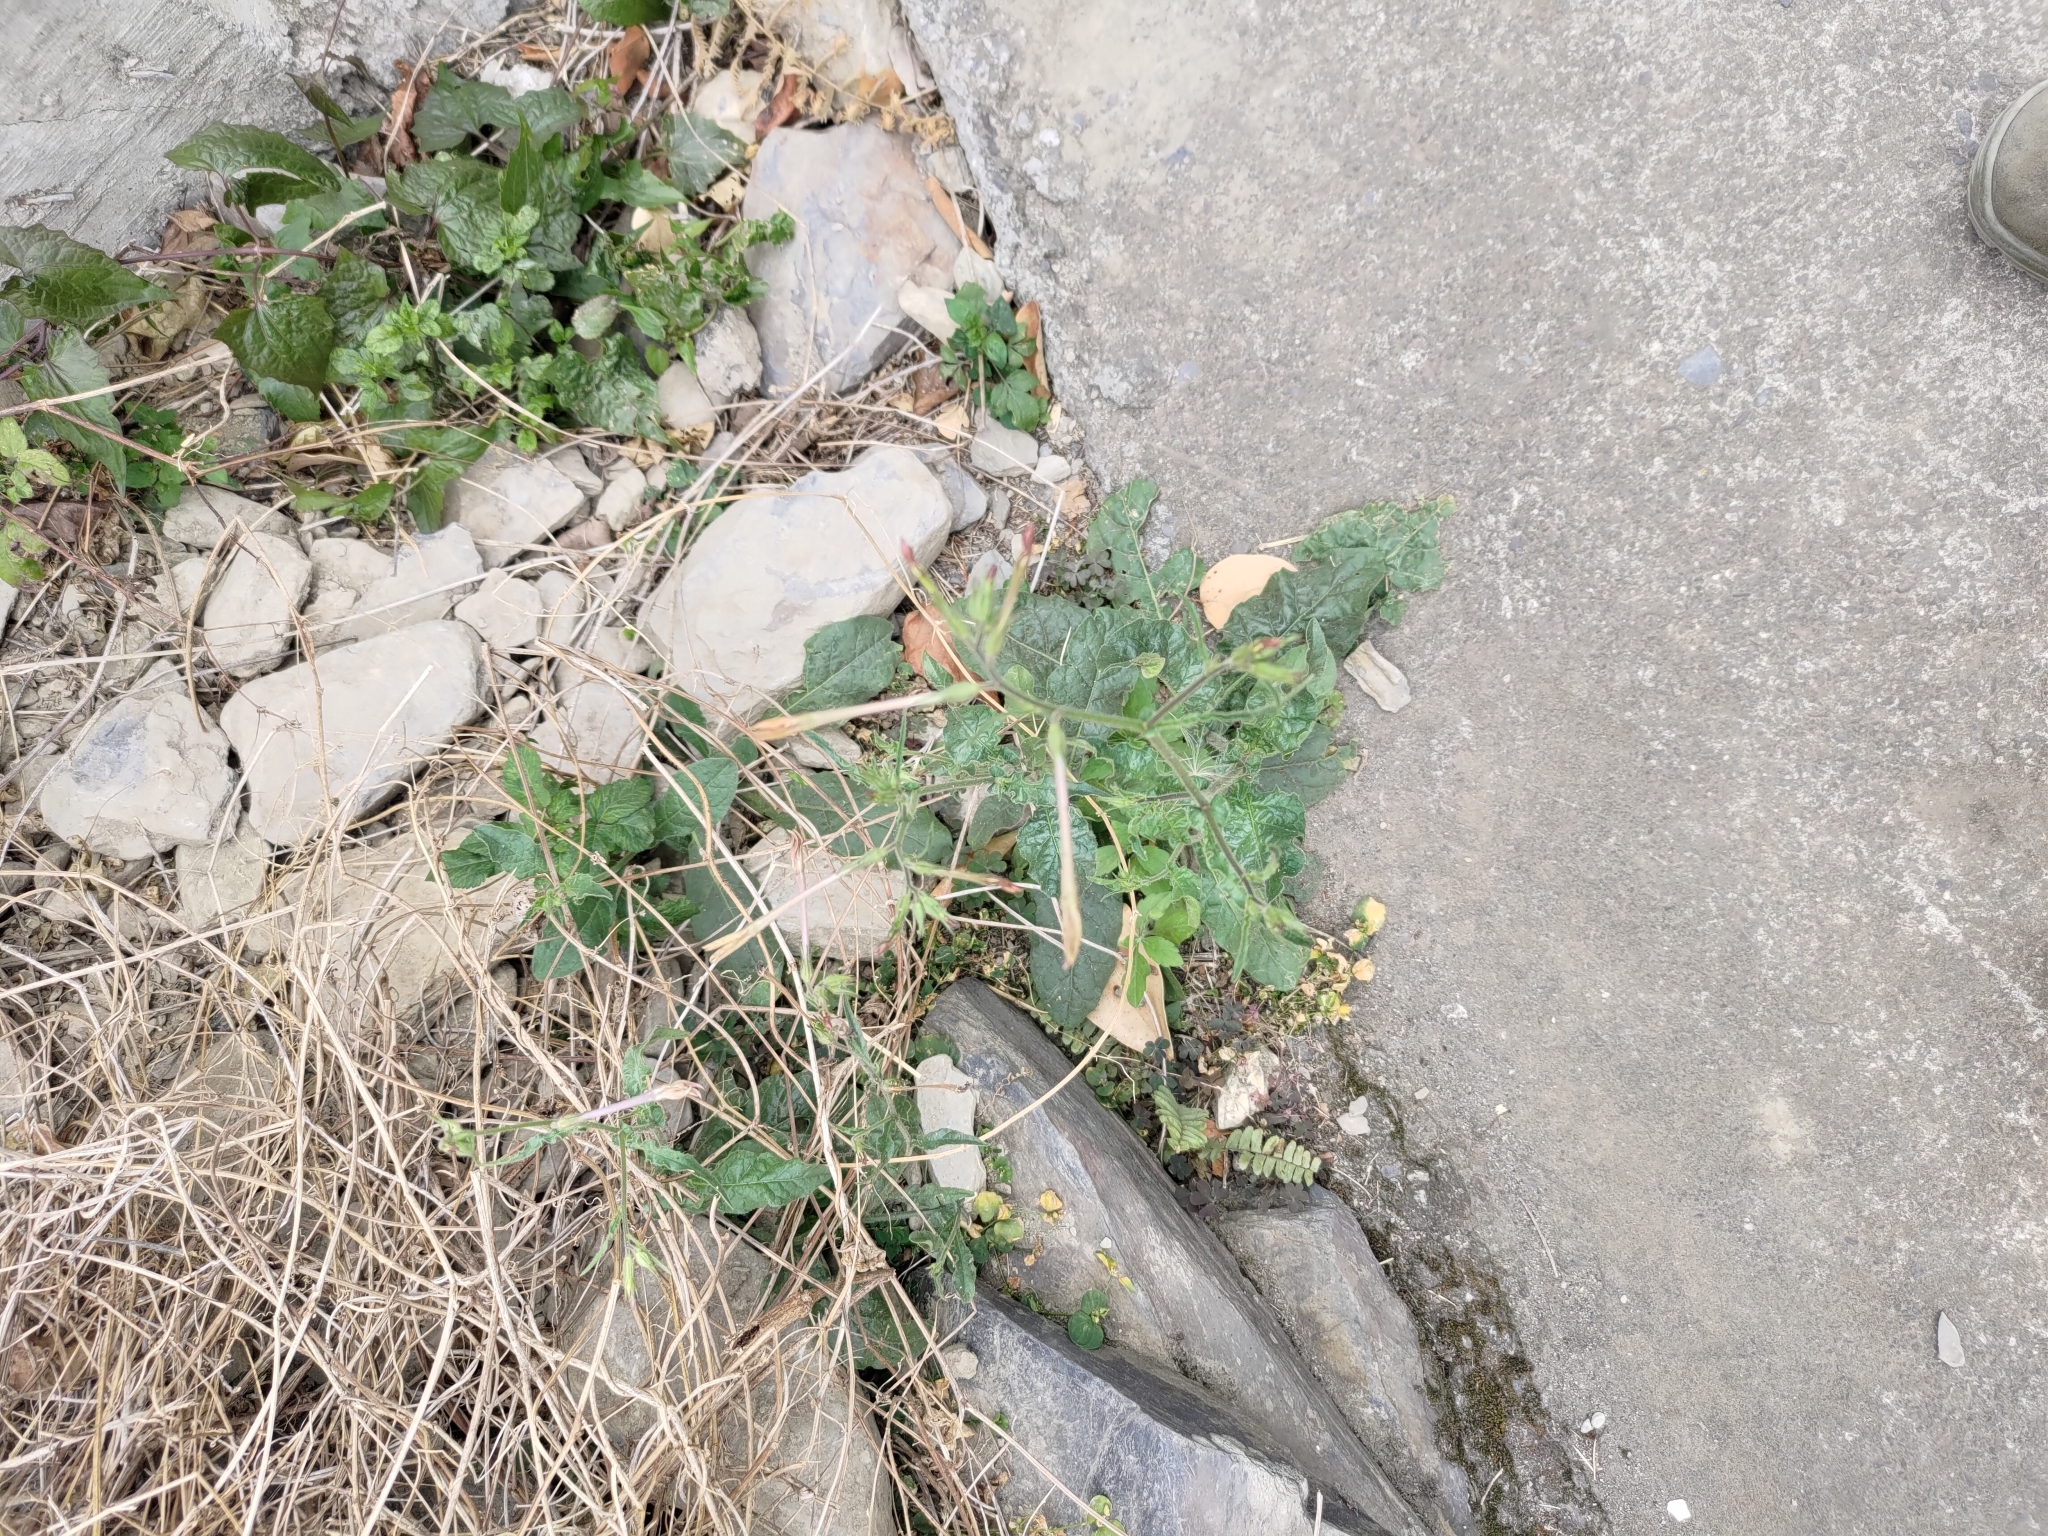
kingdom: Plantae
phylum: Tracheophyta
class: Magnoliopsida
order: Solanales
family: Solanaceae
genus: Nicotiana
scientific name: Nicotiana plumbaginifolia
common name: Tex-mex tobacco
